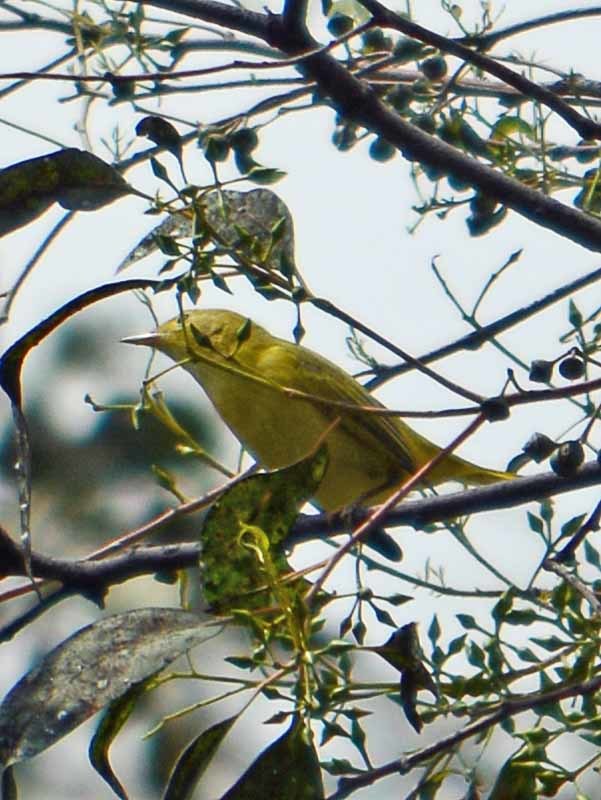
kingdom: Animalia
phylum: Chordata
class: Aves
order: Passeriformes
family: Parulidae
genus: Setophaga
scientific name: Setophaga petechia
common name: Yellow warbler
